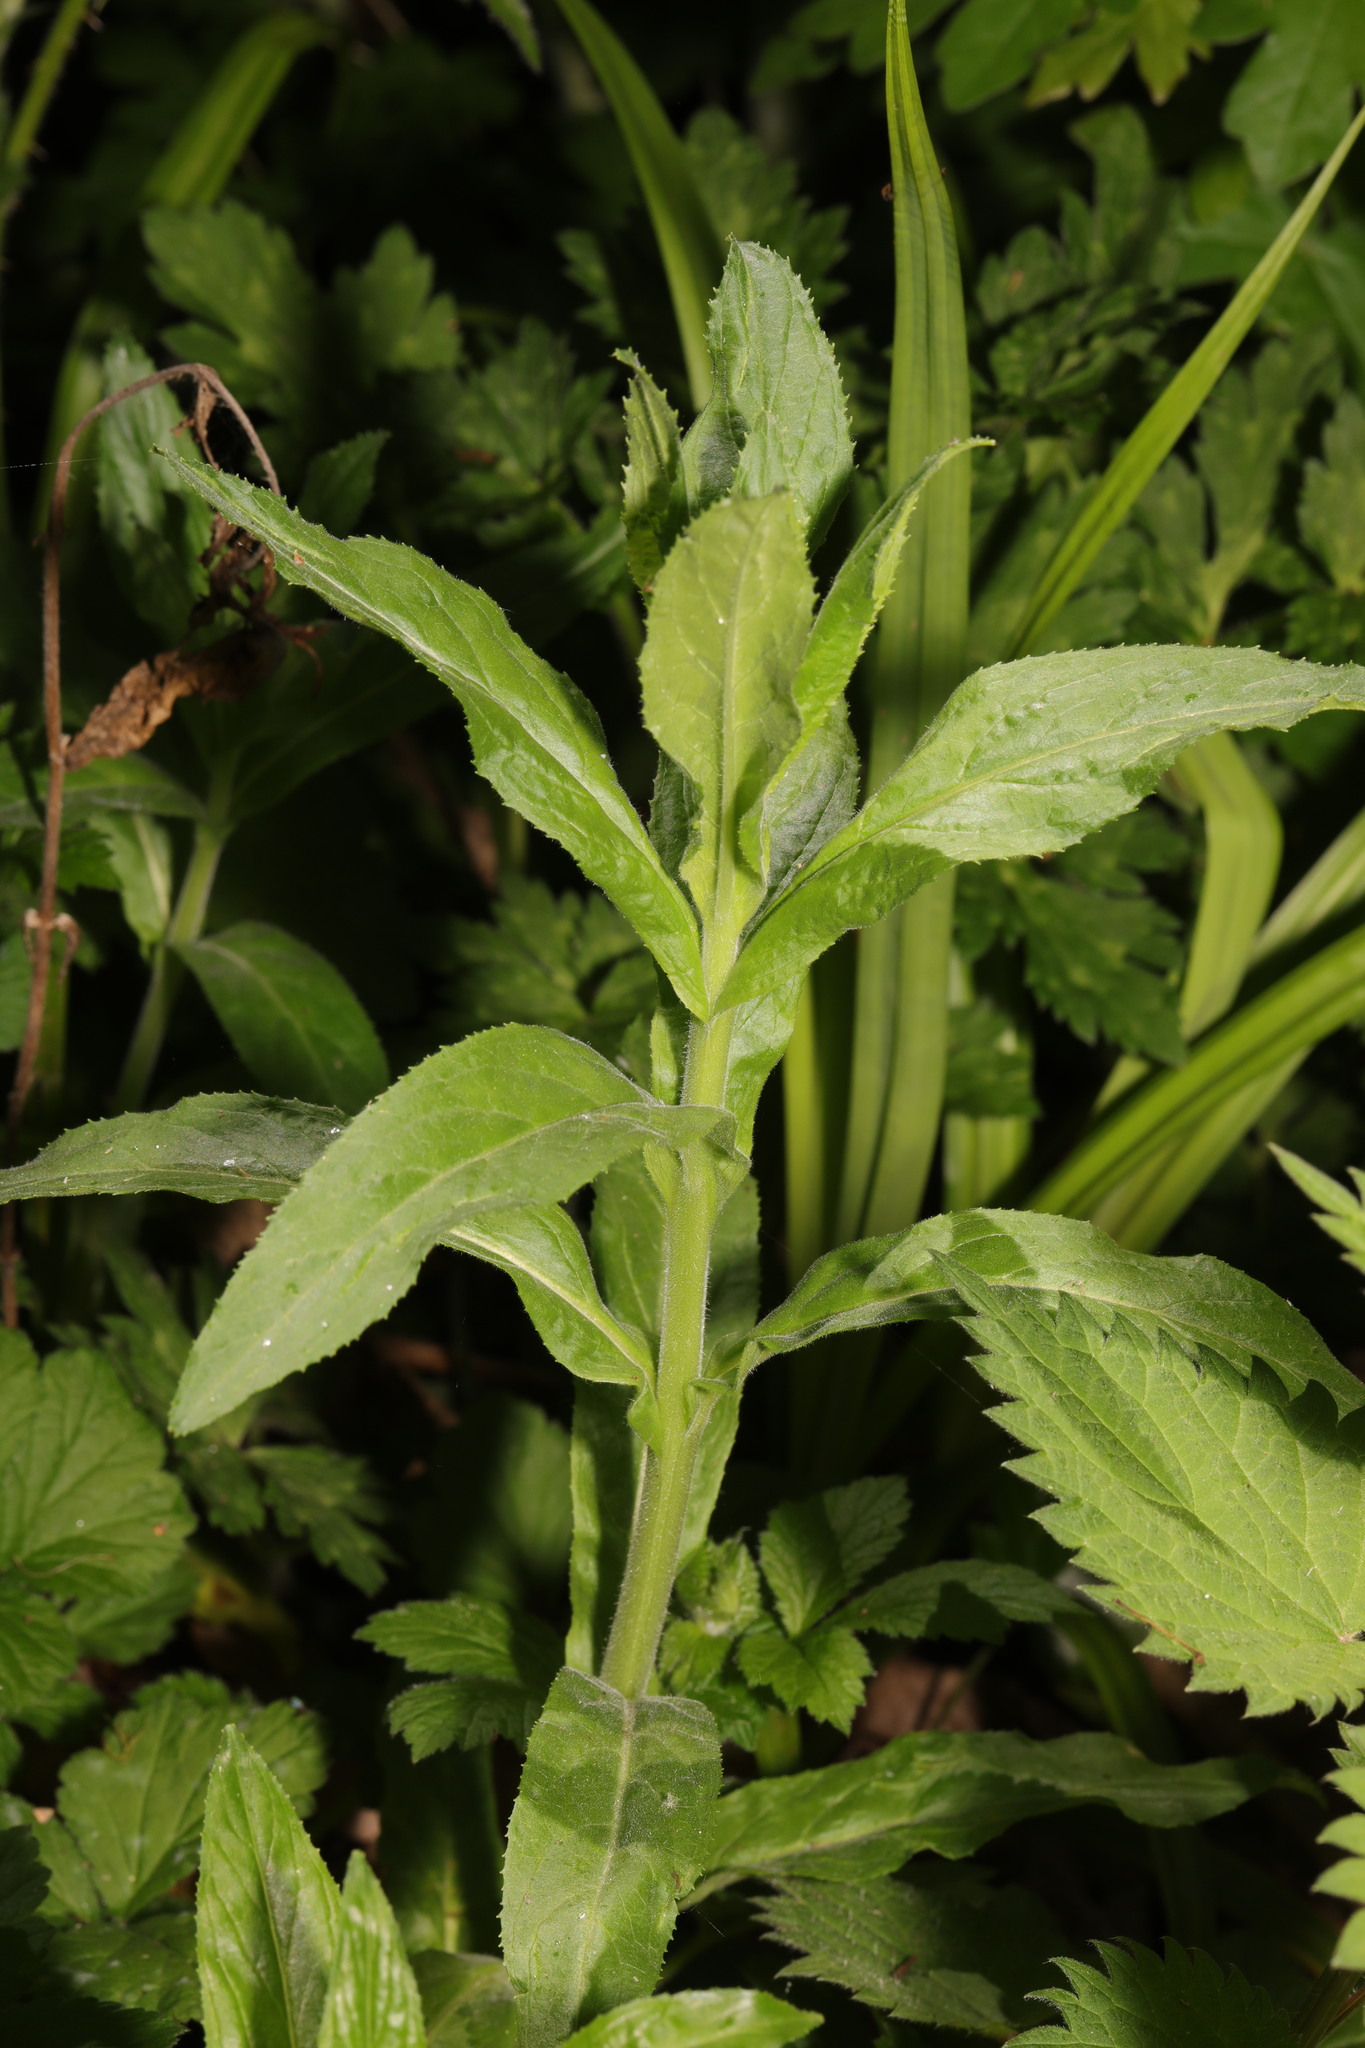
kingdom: Plantae
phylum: Tracheophyta
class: Magnoliopsida
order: Myrtales
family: Onagraceae
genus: Epilobium
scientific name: Epilobium hirsutum
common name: Great willowherb
